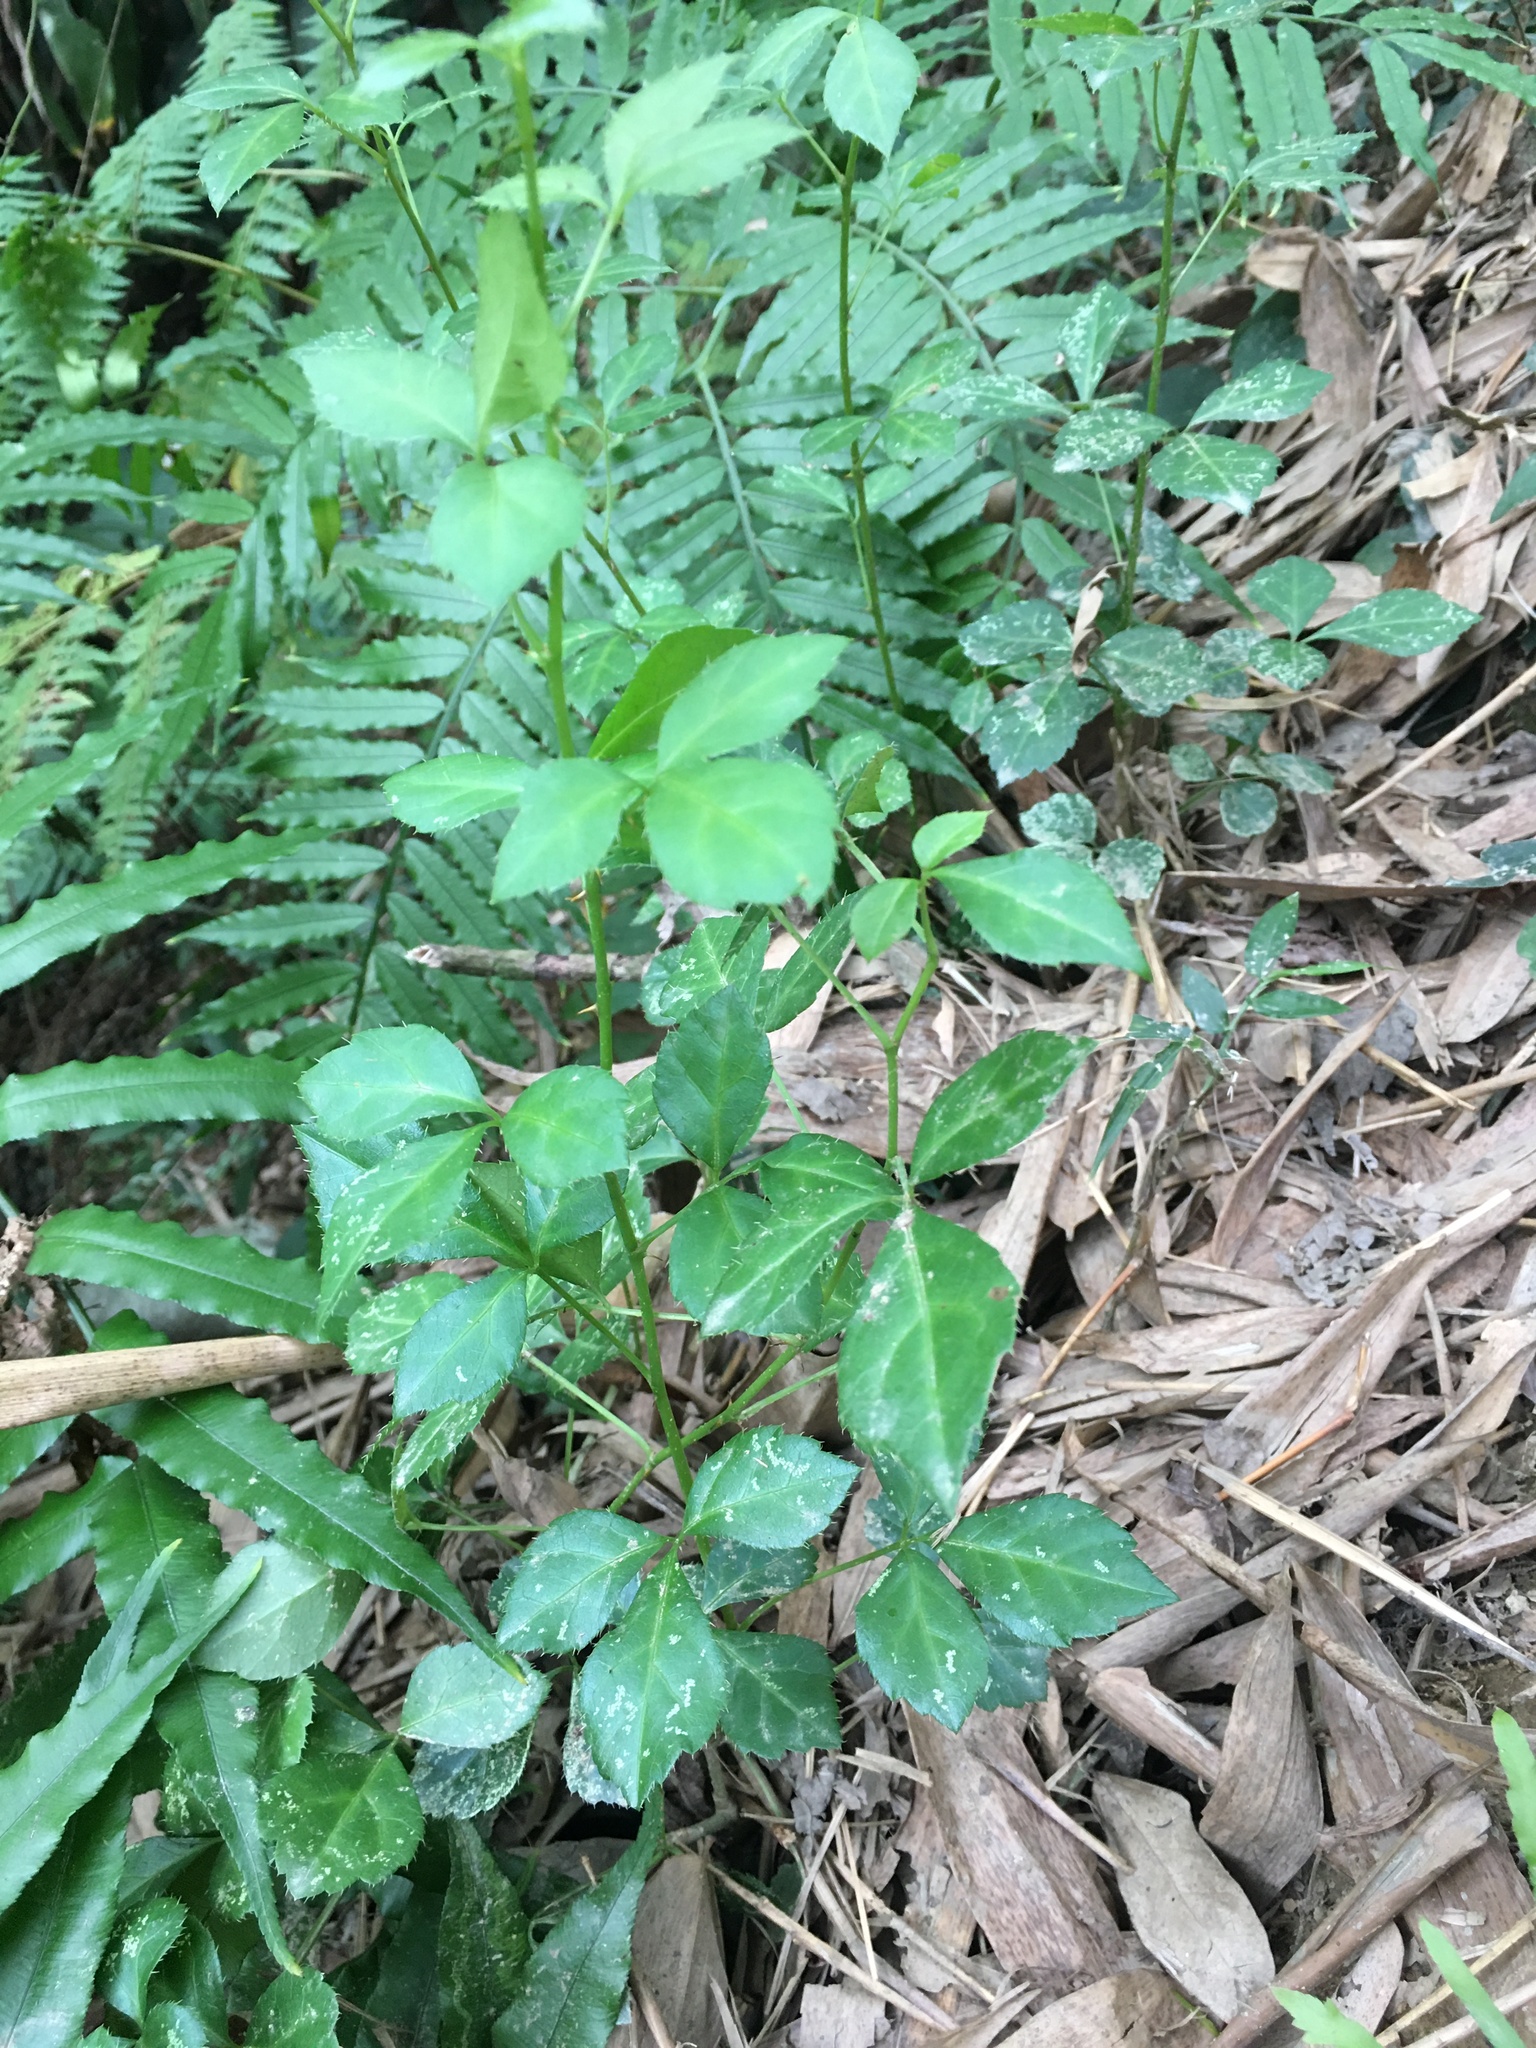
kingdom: Plantae
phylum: Tracheophyta
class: Magnoliopsida
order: Apiales
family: Araliaceae
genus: Eleutherococcus
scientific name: Eleutherococcus trifoliatus
